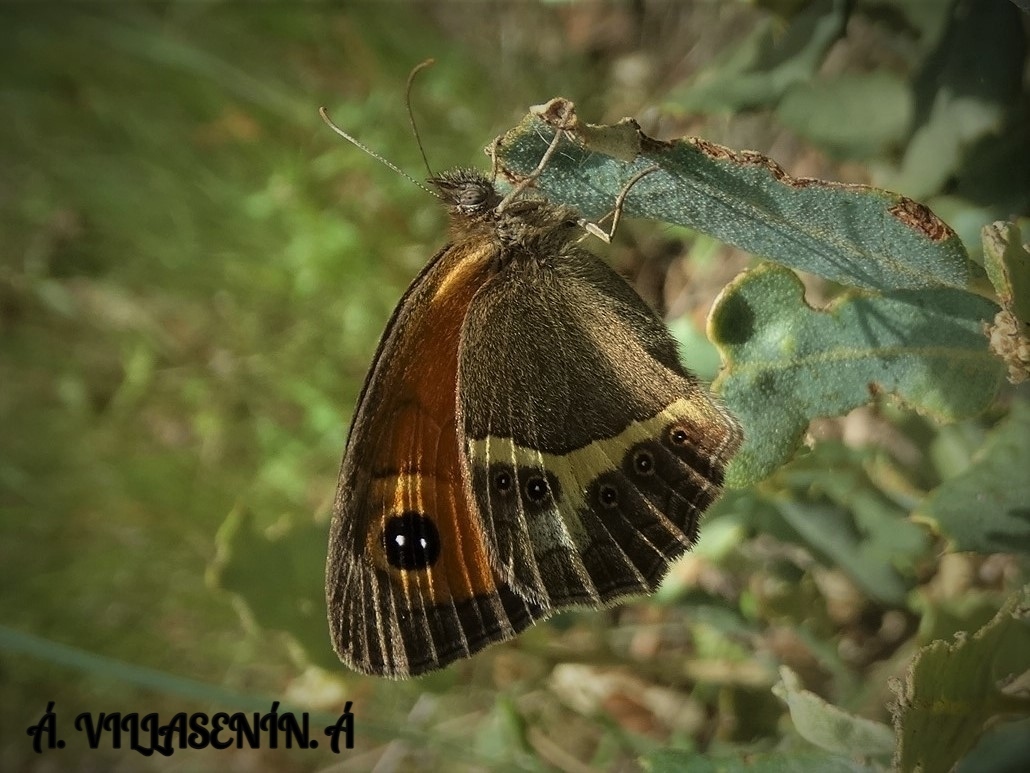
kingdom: Animalia
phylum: Arthropoda
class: Insecta
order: Lepidoptera
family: Nymphalidae
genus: Pyronia
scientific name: Pyronia bathseba
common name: Spanish gatekeeper
